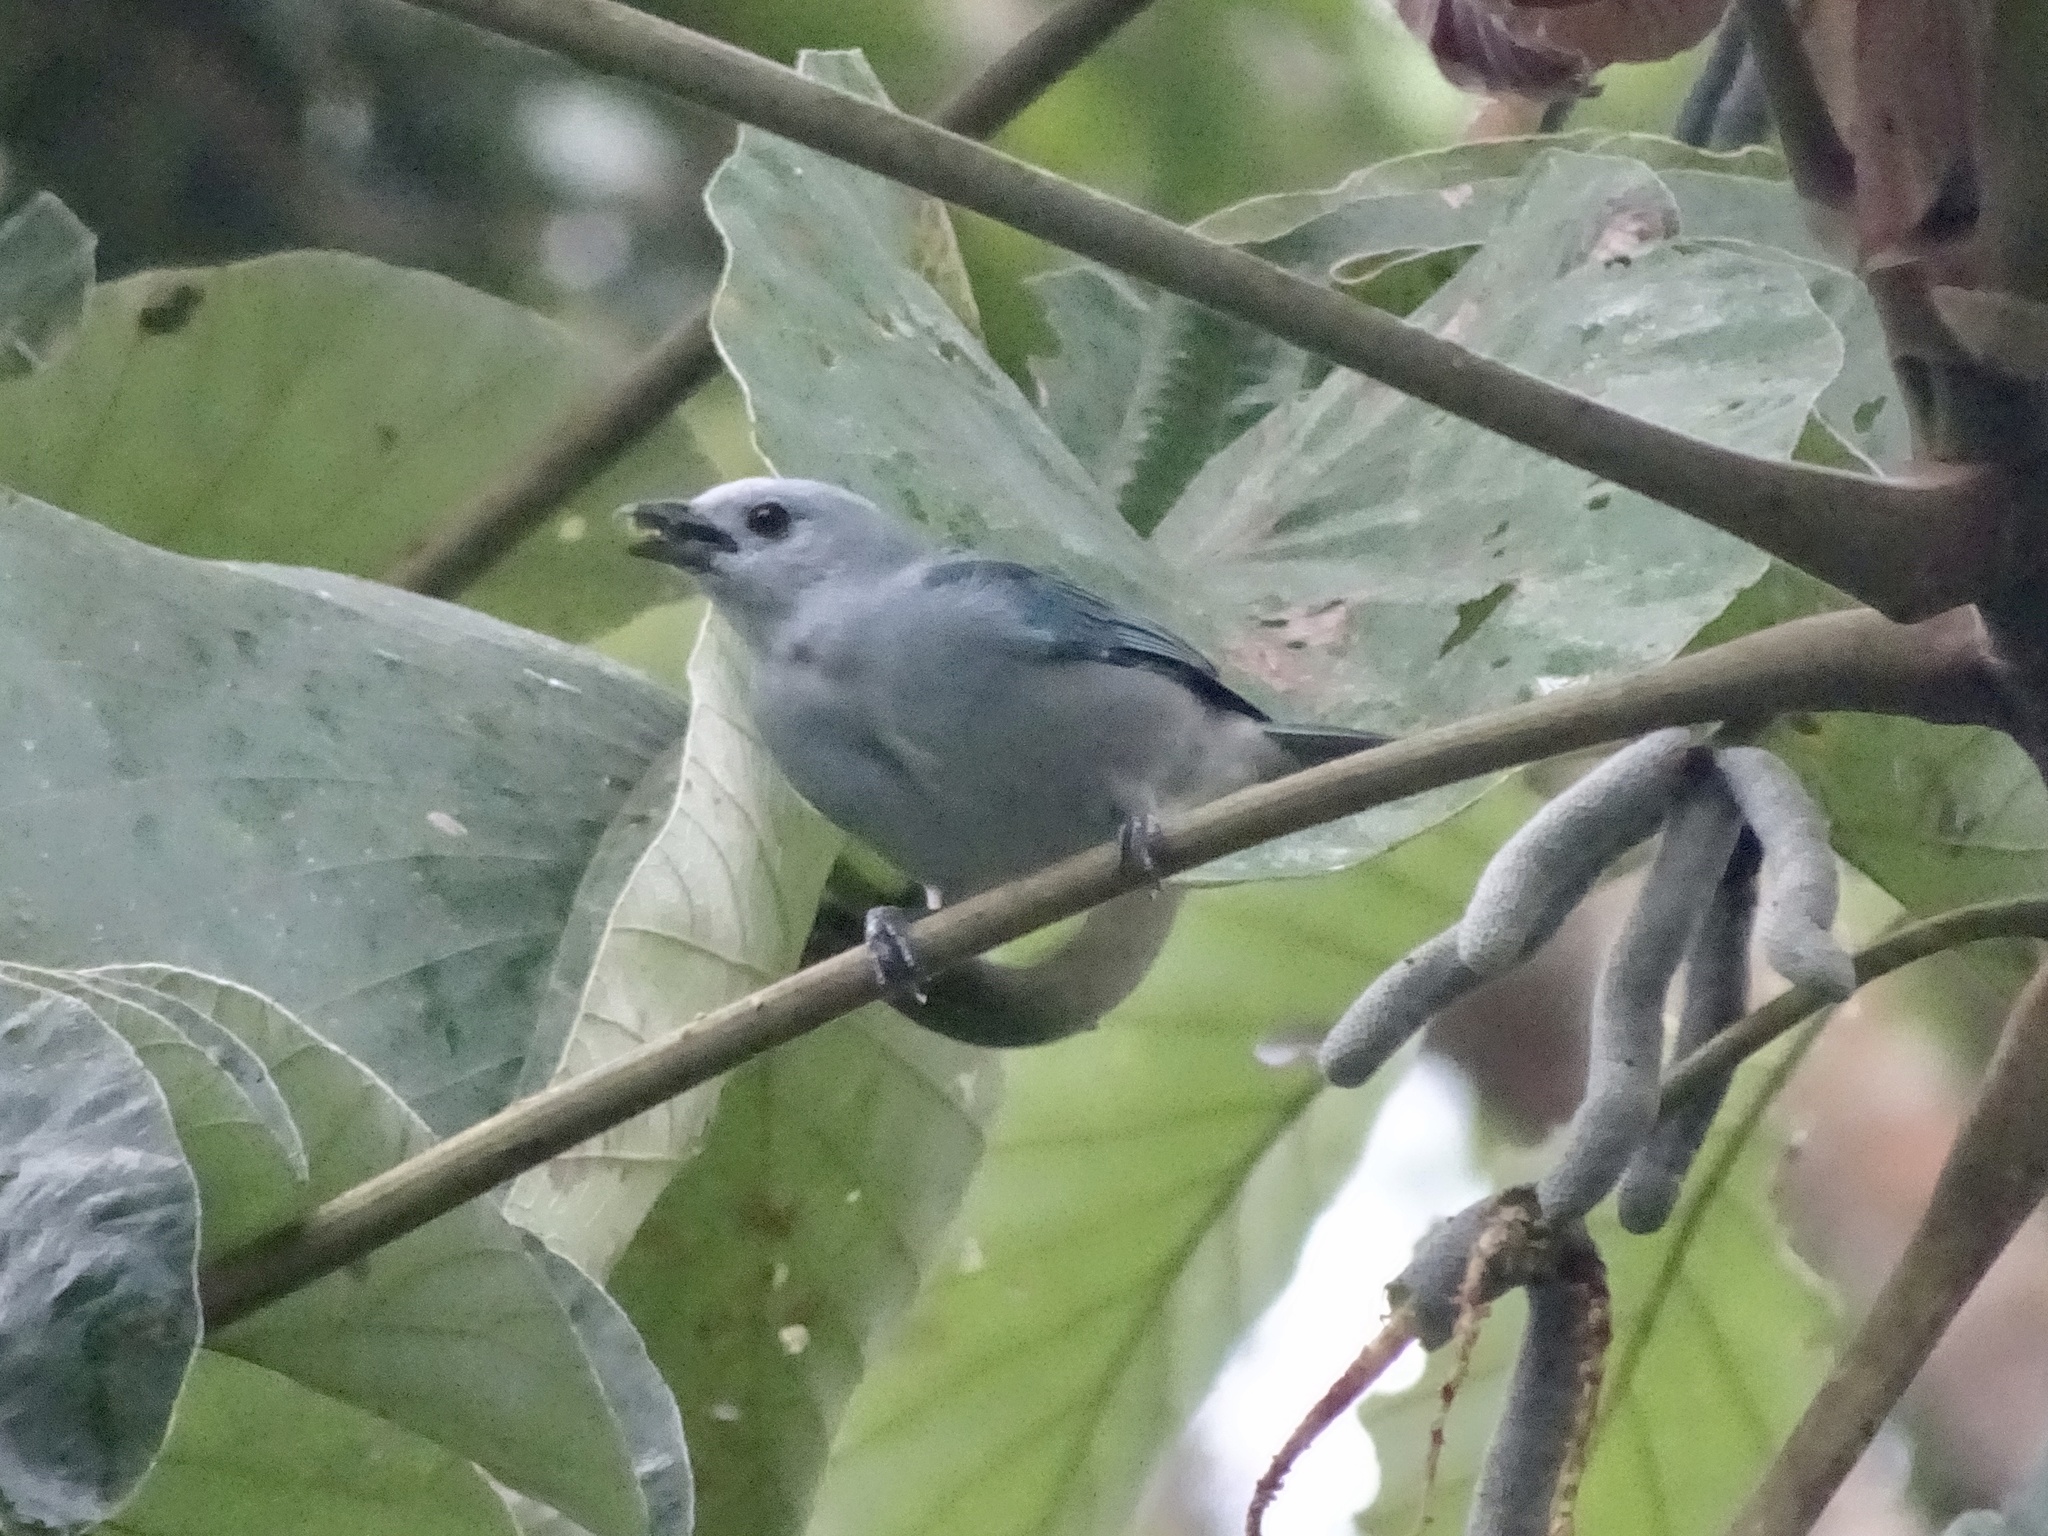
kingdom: Animalia
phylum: Chordata
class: Aves
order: Passeriformes
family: Thraupidae
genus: Thraupis
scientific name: Thraupis episcopus
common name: Blue-grey tanager
